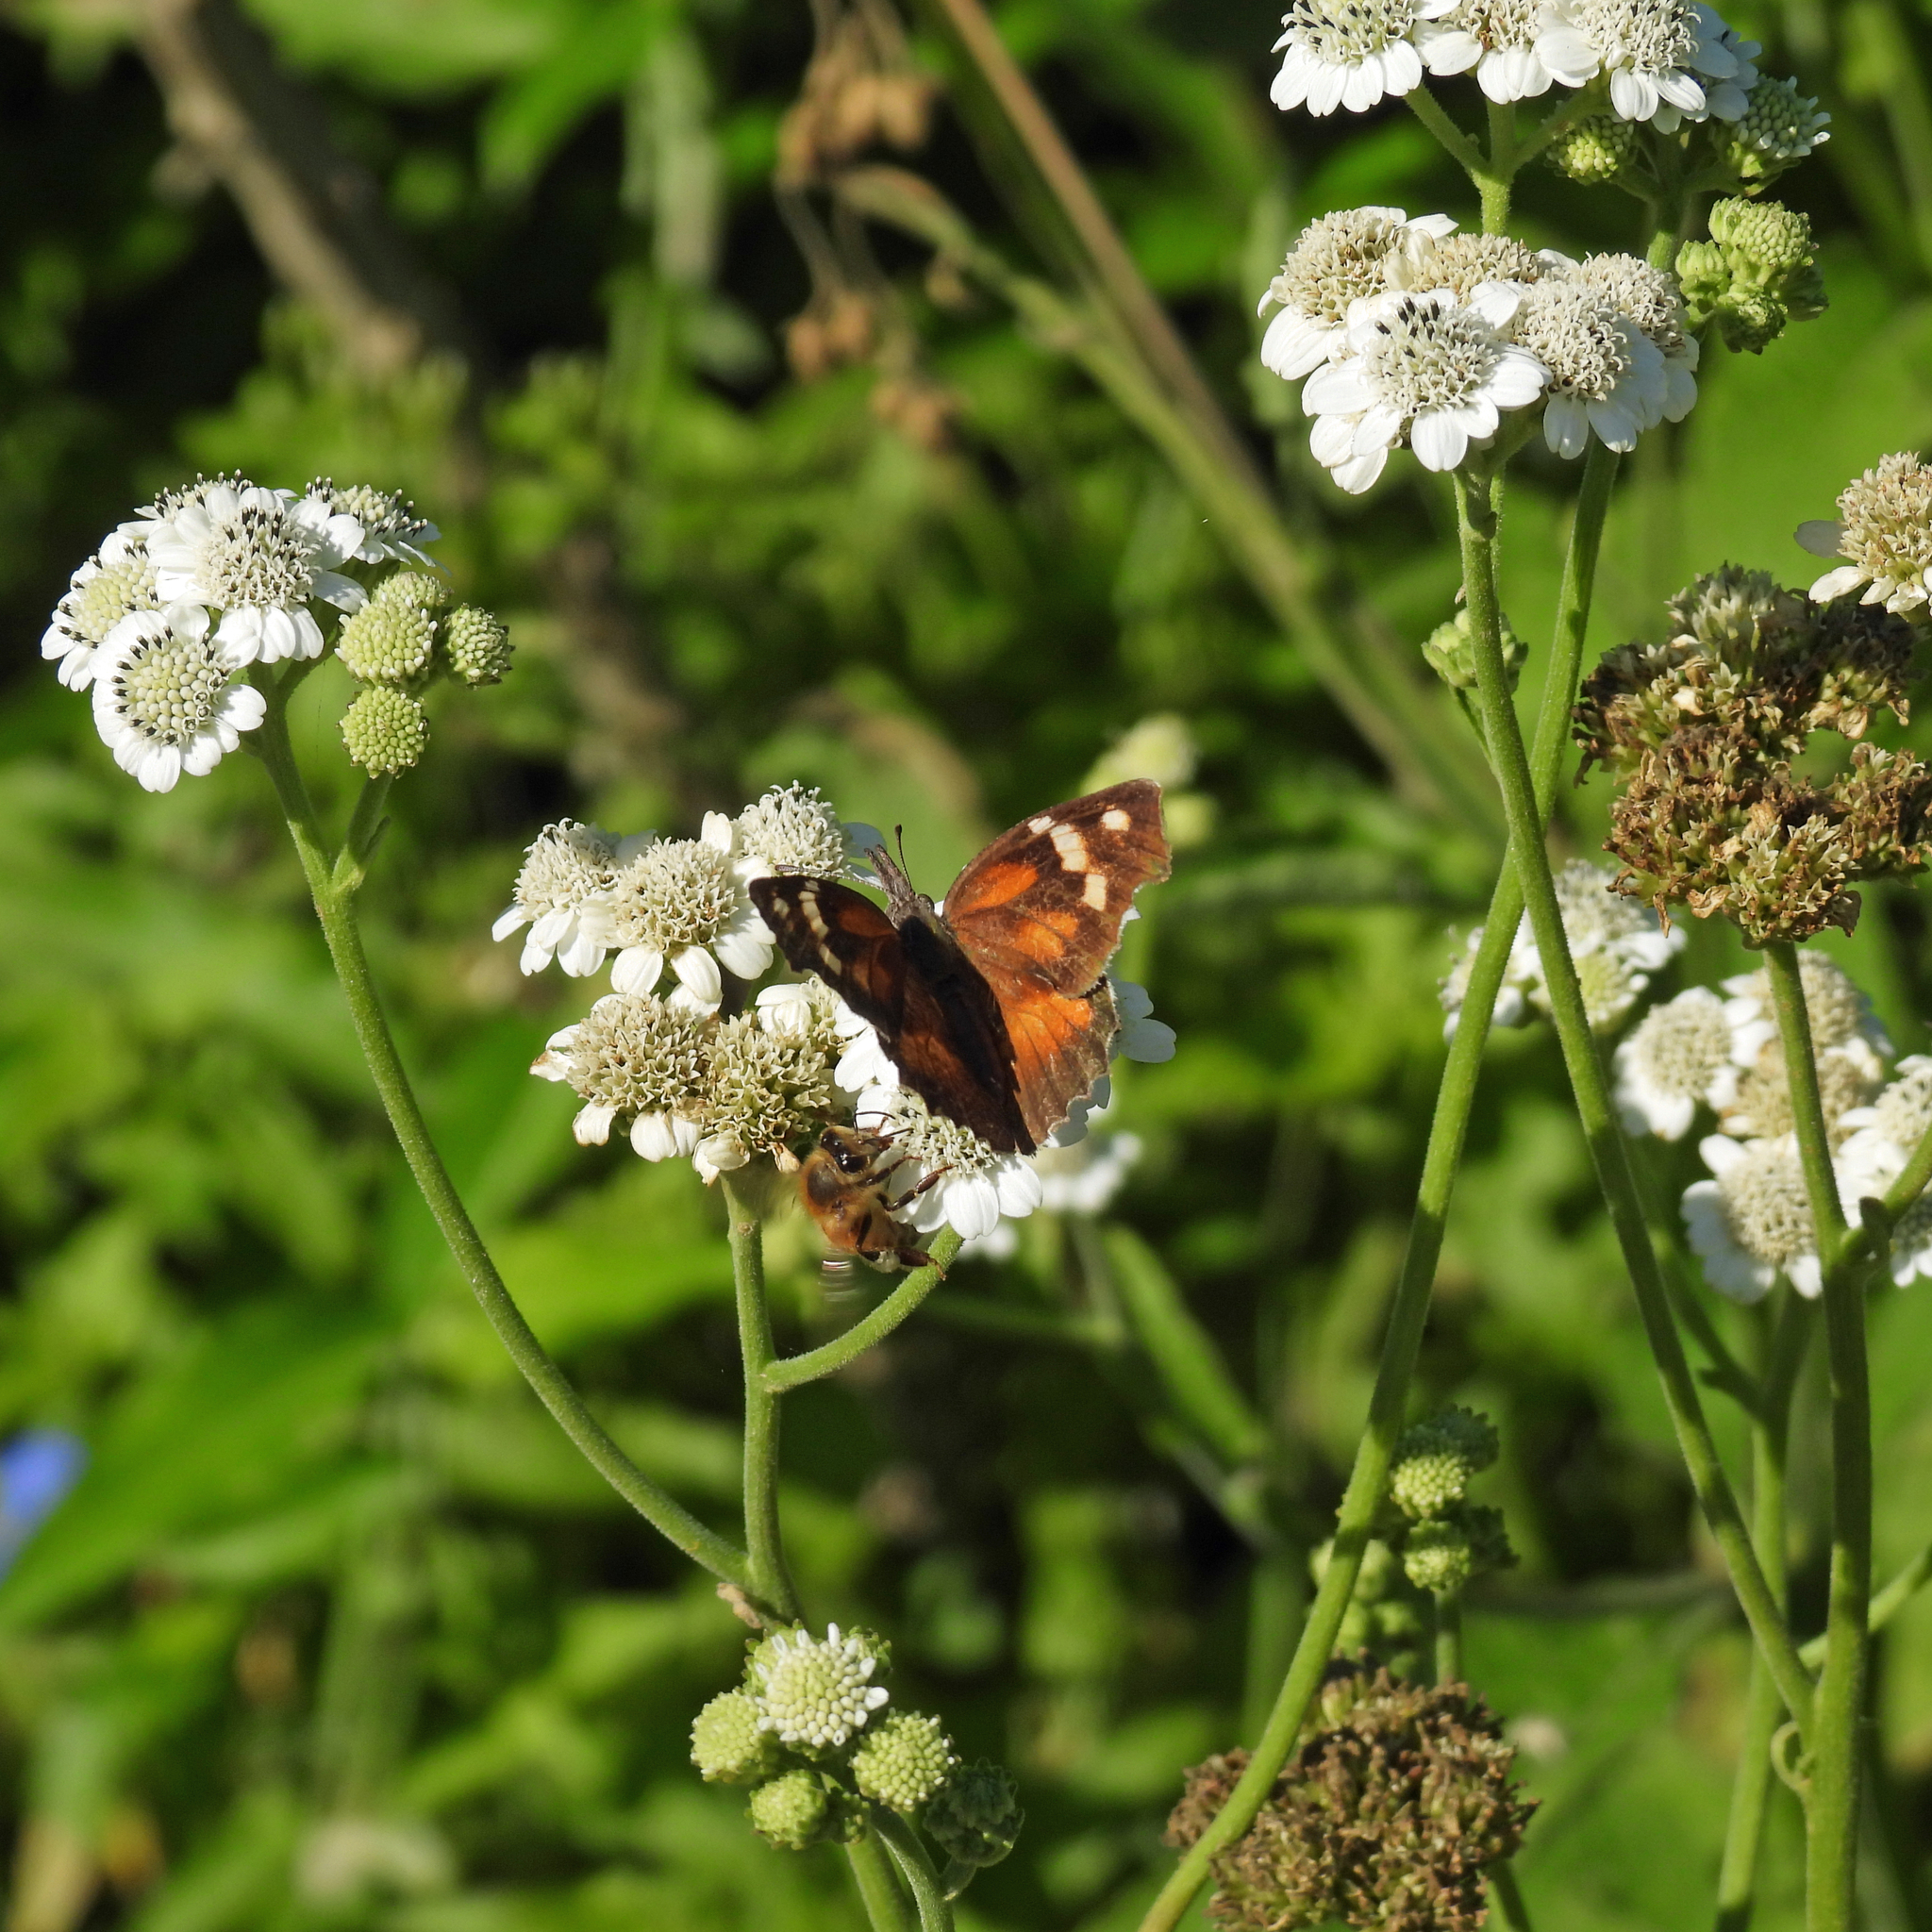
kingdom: Animalia
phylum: Arthropoda
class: Insecta
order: Lepidoptera
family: Nymphalidae
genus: Libytheana
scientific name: Libytheana carinenta
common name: American snout
